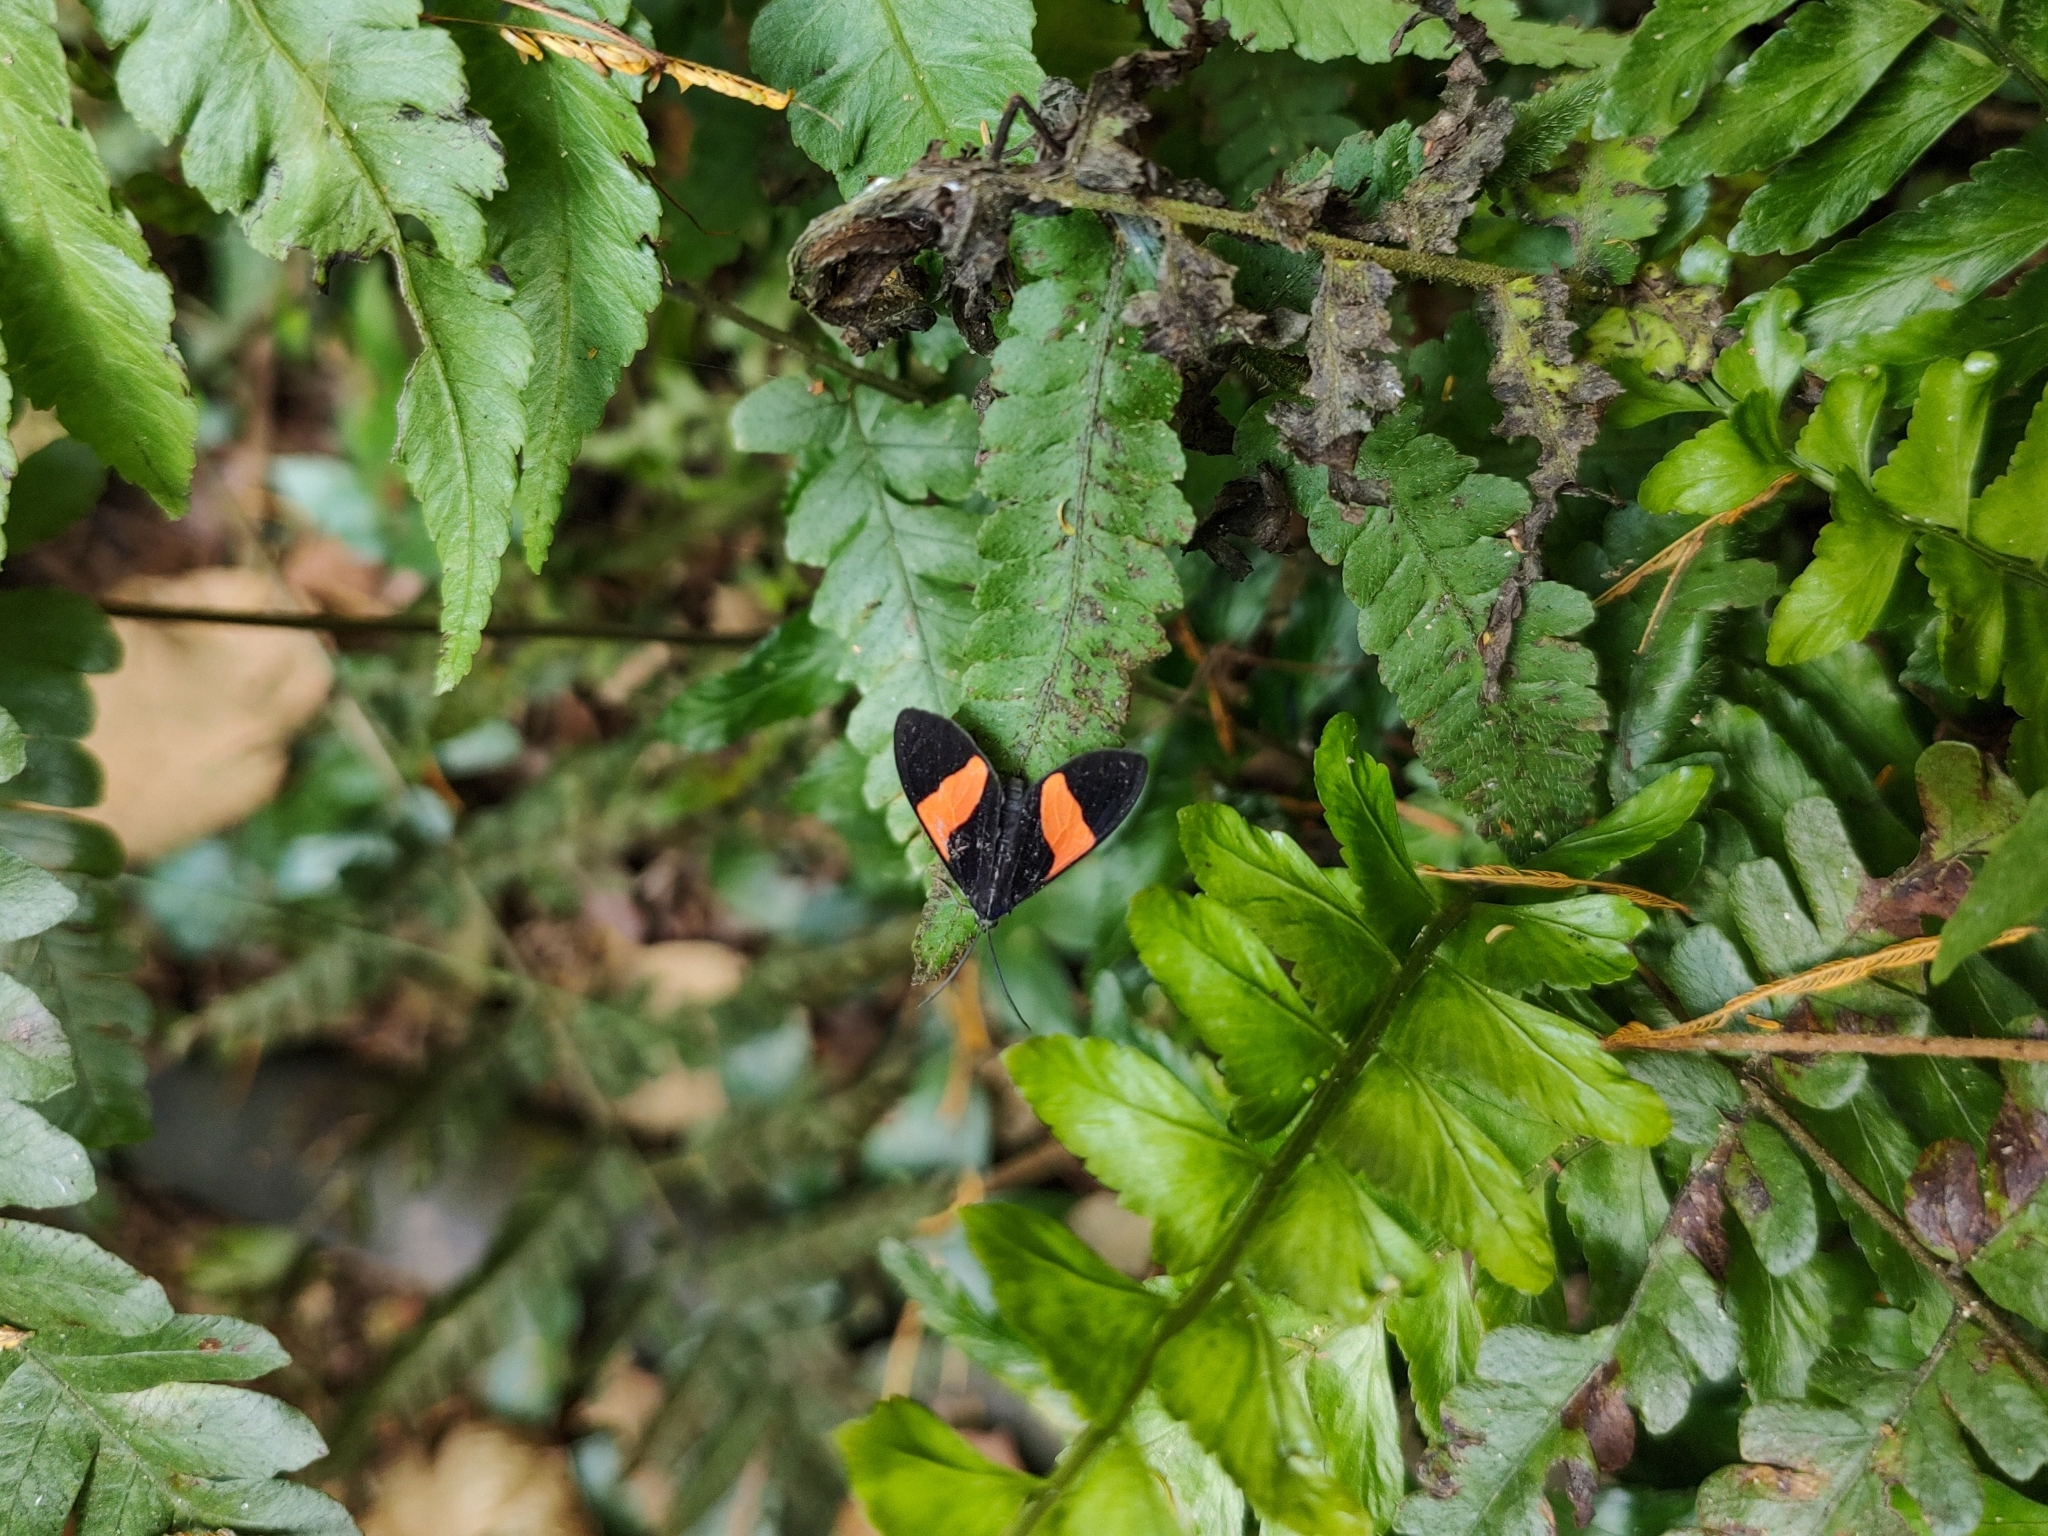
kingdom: Animalia
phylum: Arthropoda
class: Insecta
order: Lepidoptera
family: Erebidae
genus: Callopepla
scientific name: Callopepla emarginata
